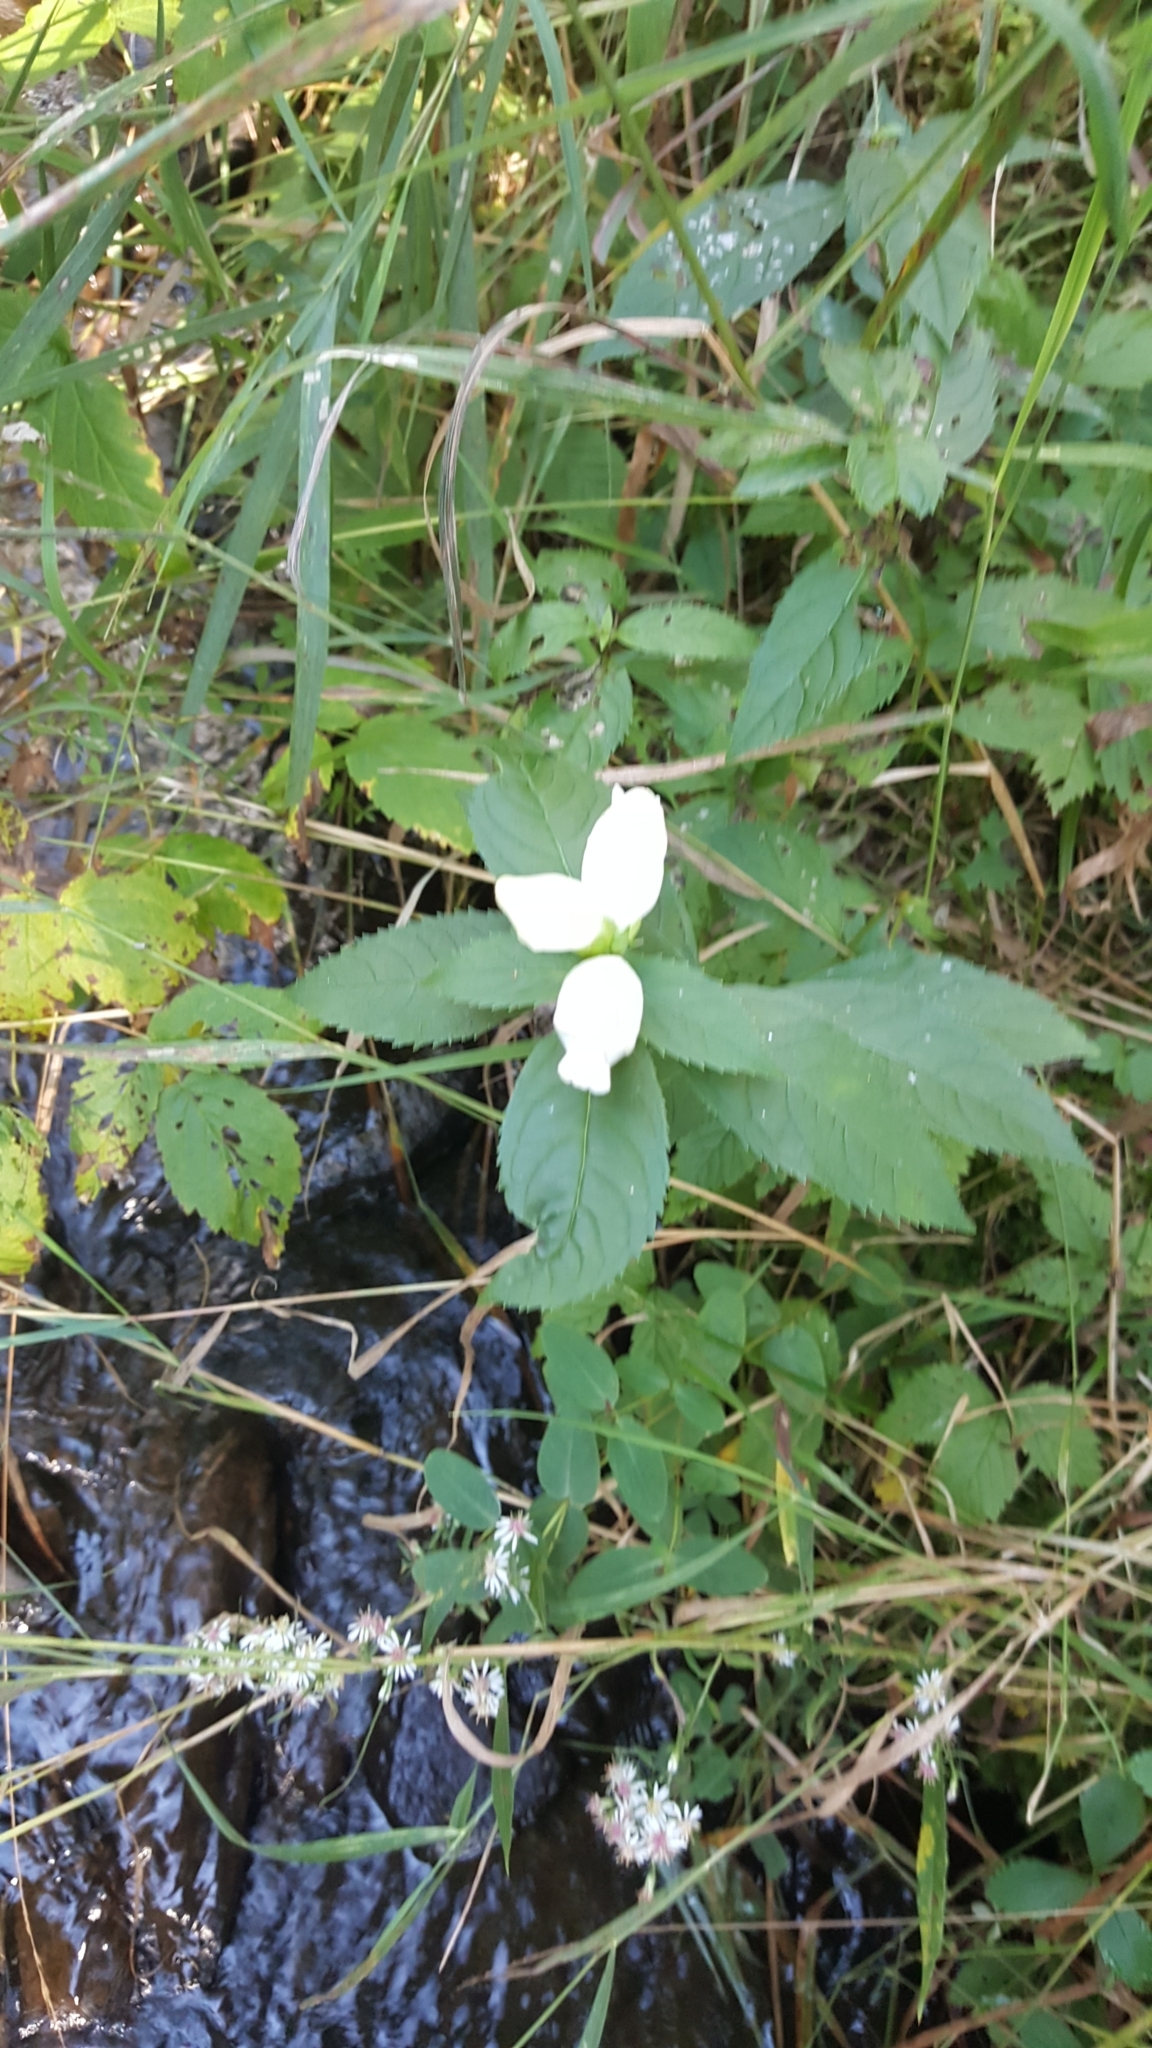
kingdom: Plantae
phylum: Tracheophyta
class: Magnoliopsida
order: Lamiales
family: Plantaginaceae
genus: Chelone
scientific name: Chelone glabra
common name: Snakehead
